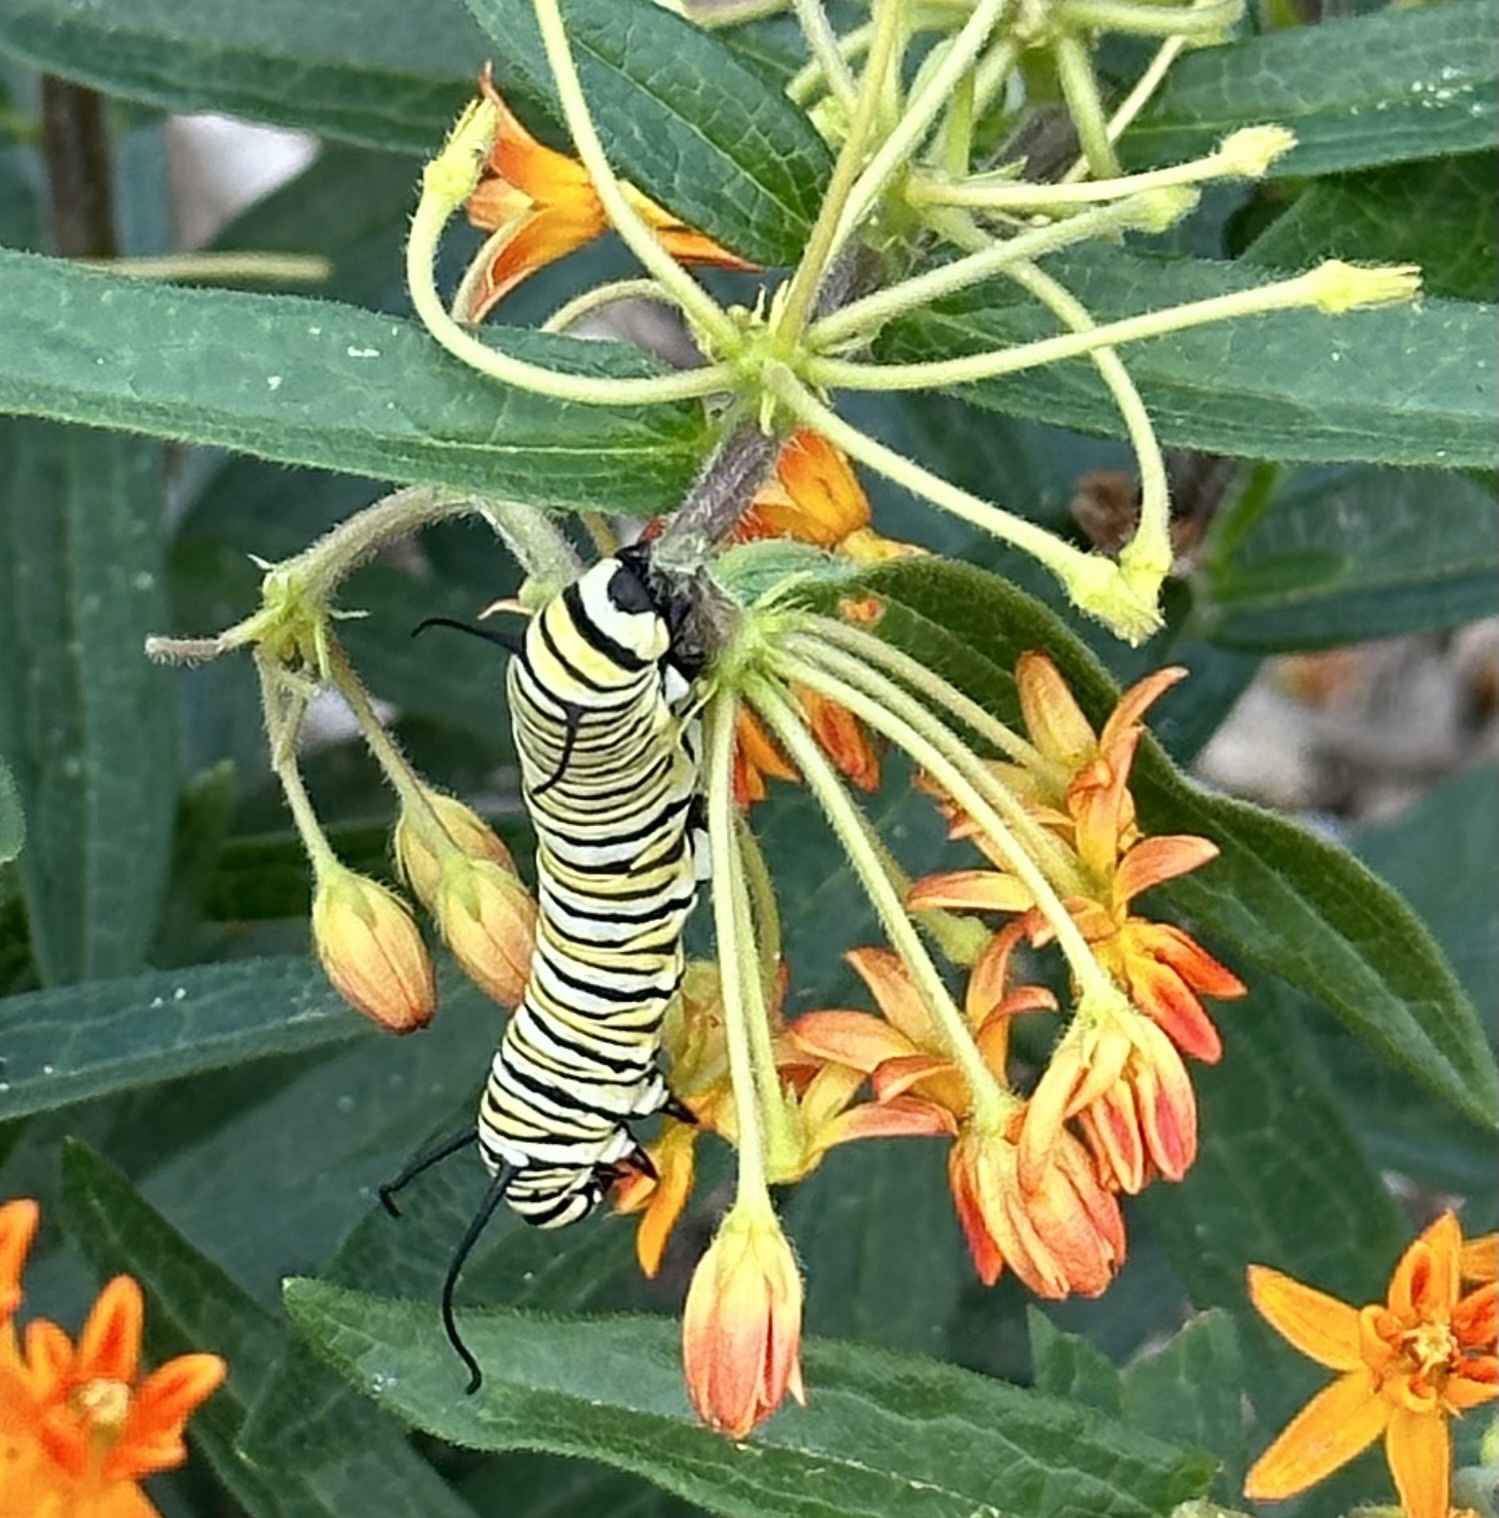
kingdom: Animalia
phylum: Arthropoda
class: Insecta
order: Lepidoptera
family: Nymphalidae
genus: Danaus
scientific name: Danaus plexippus
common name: Monarch
